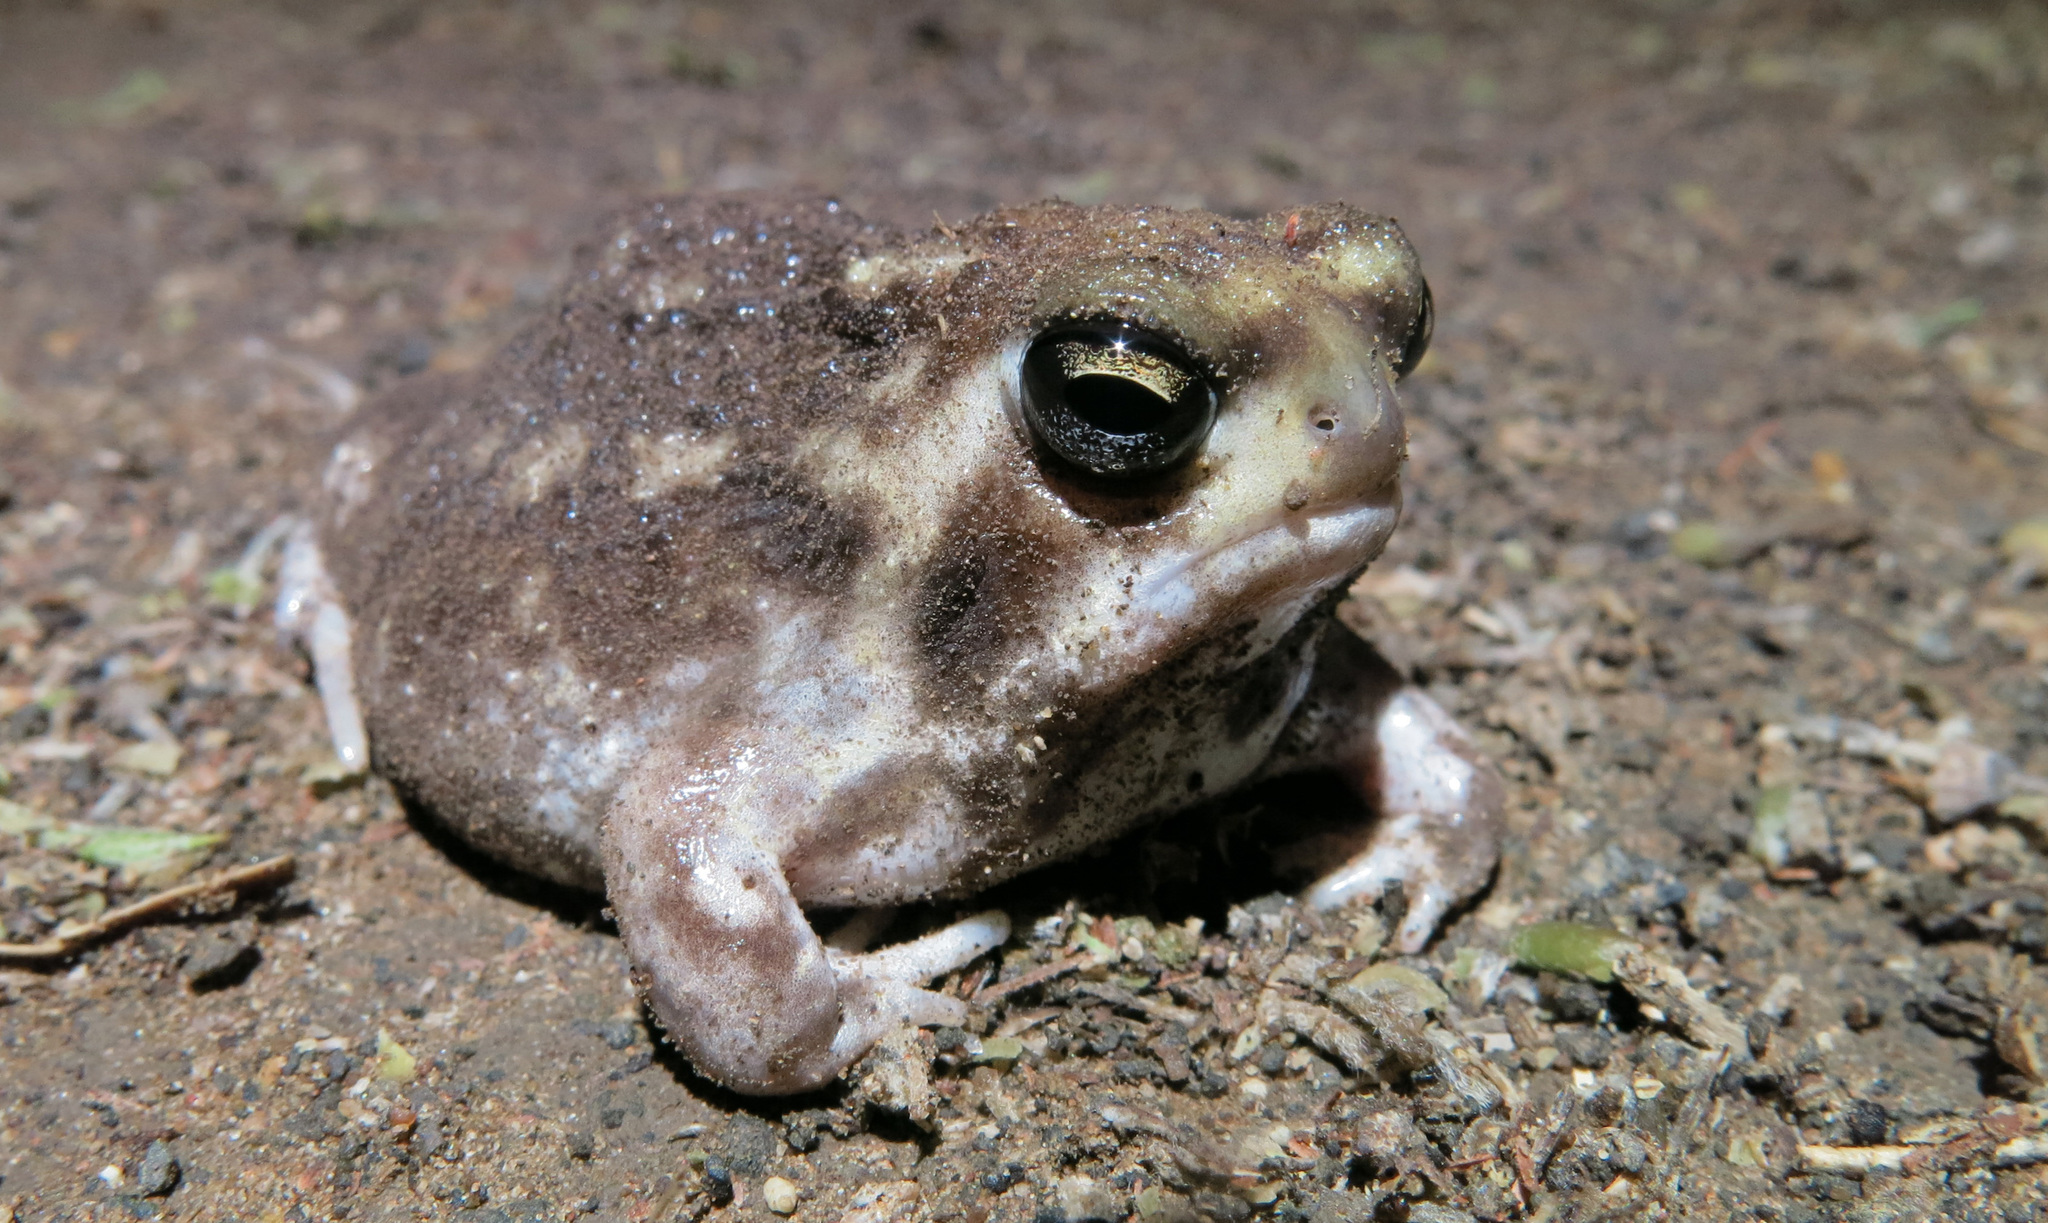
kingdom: Animalia
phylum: Chordata
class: Amphibia
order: Anura
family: Brevicipitidae
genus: Breviceps
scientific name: Breviceps adspersus
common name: Common rain frog
